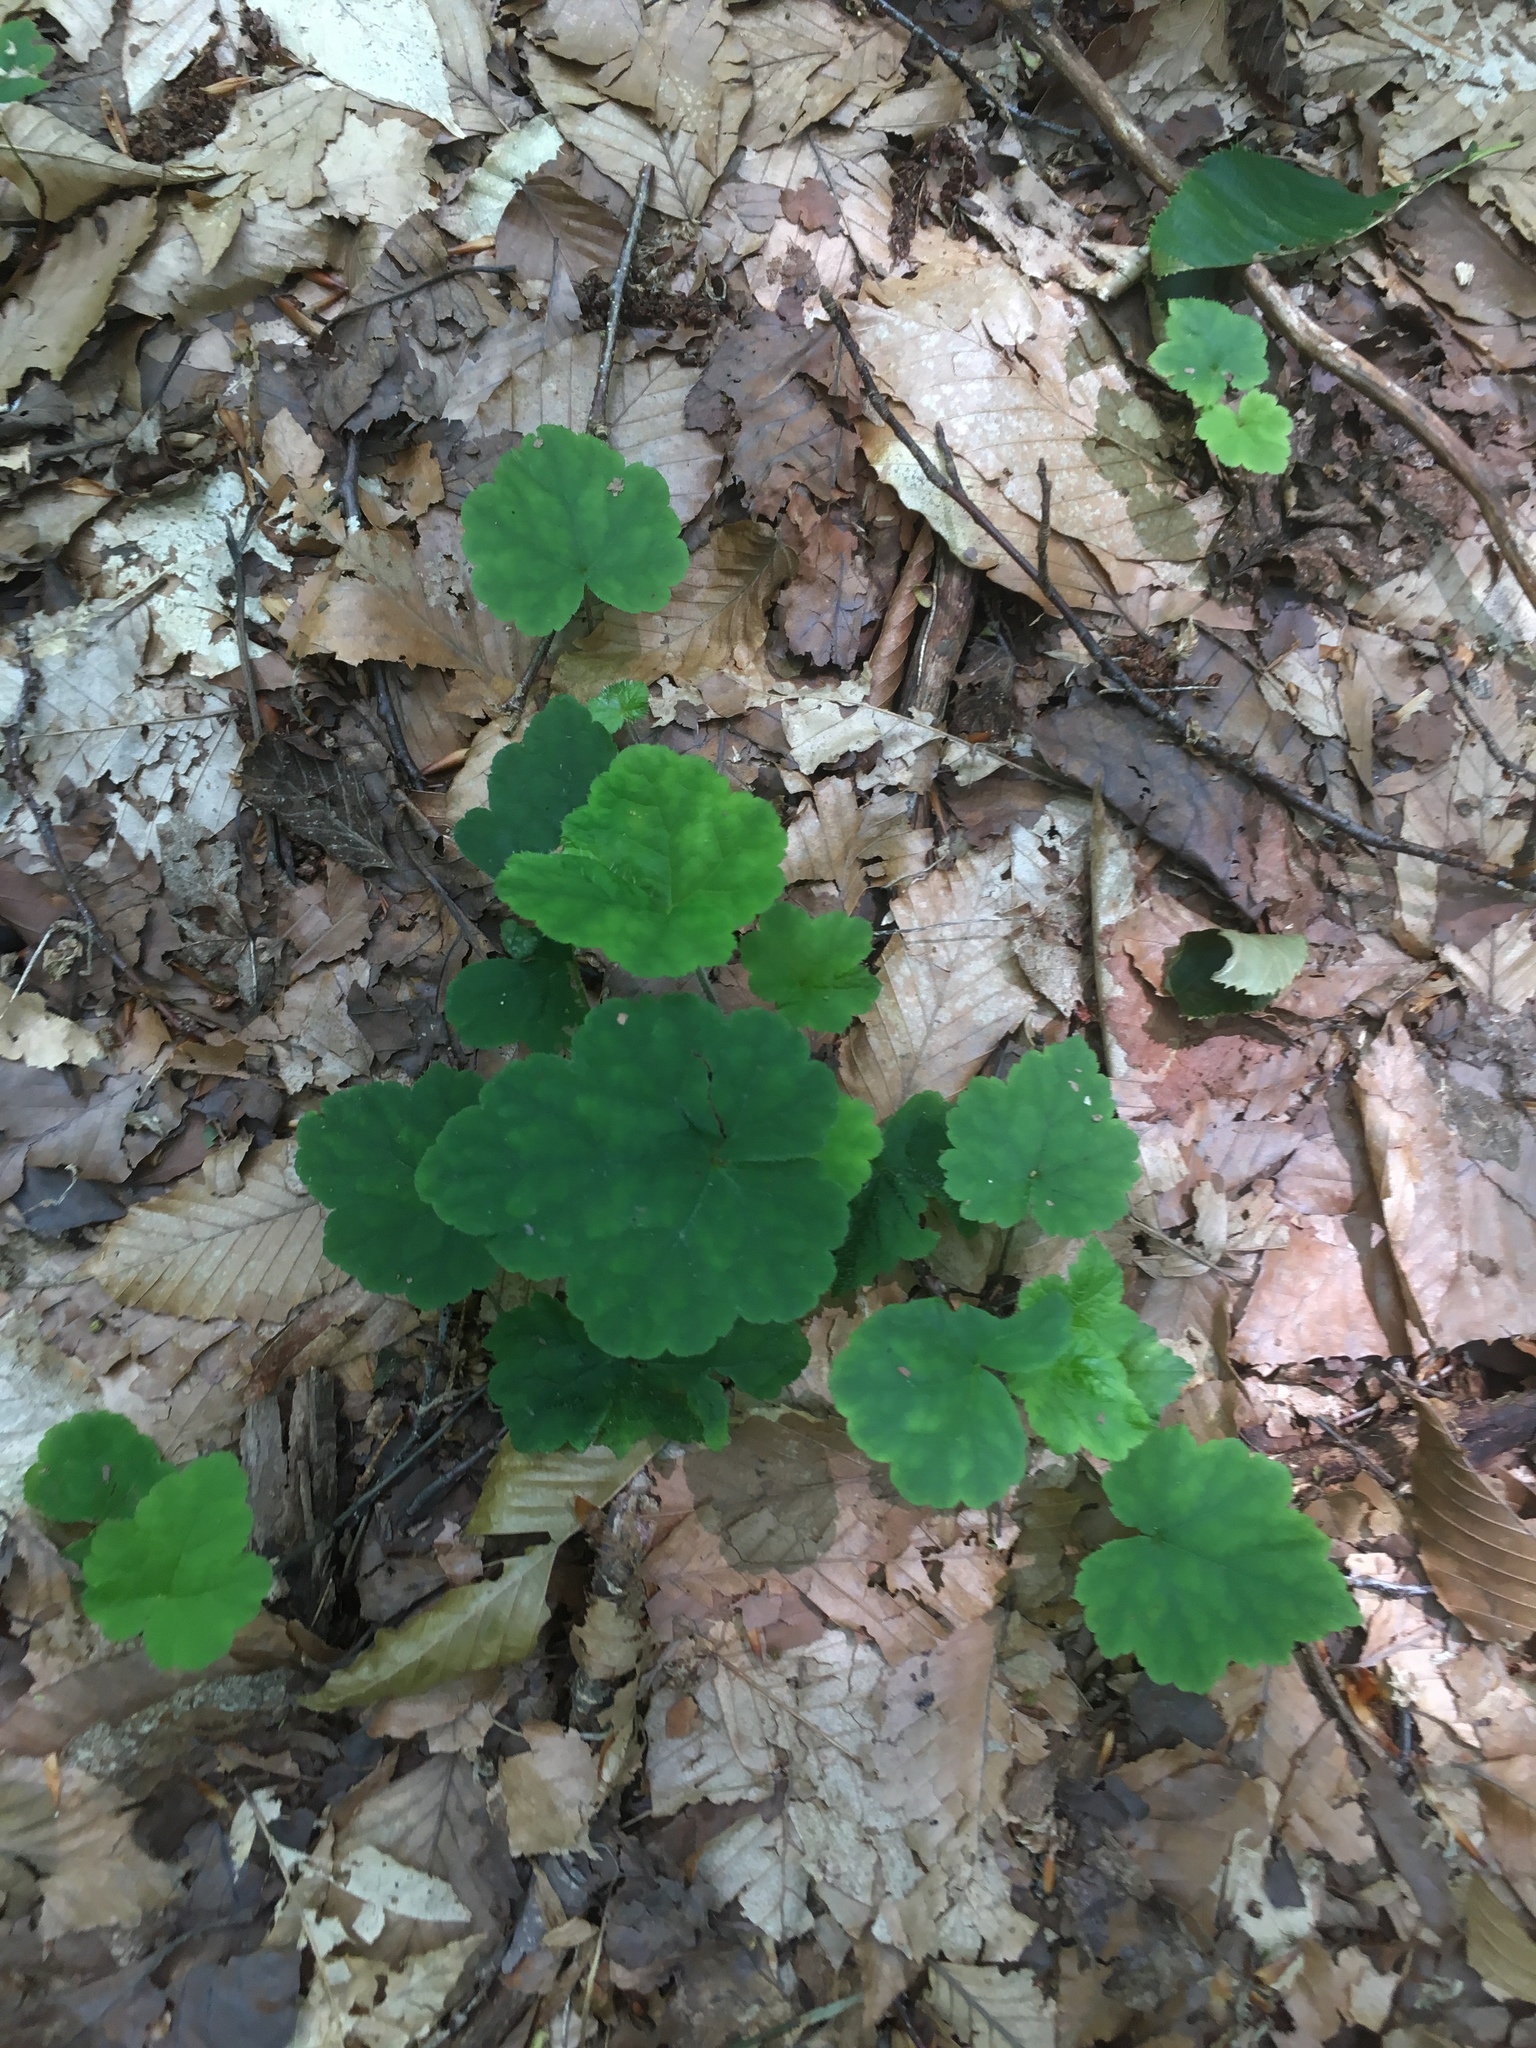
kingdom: Plantae
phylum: Tracheophyta
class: Magnoliopsida
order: Saxifragales
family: Saxifragaceae
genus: Tiarella
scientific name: Tiarella stolonifera
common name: Stoloniferous foamflower
